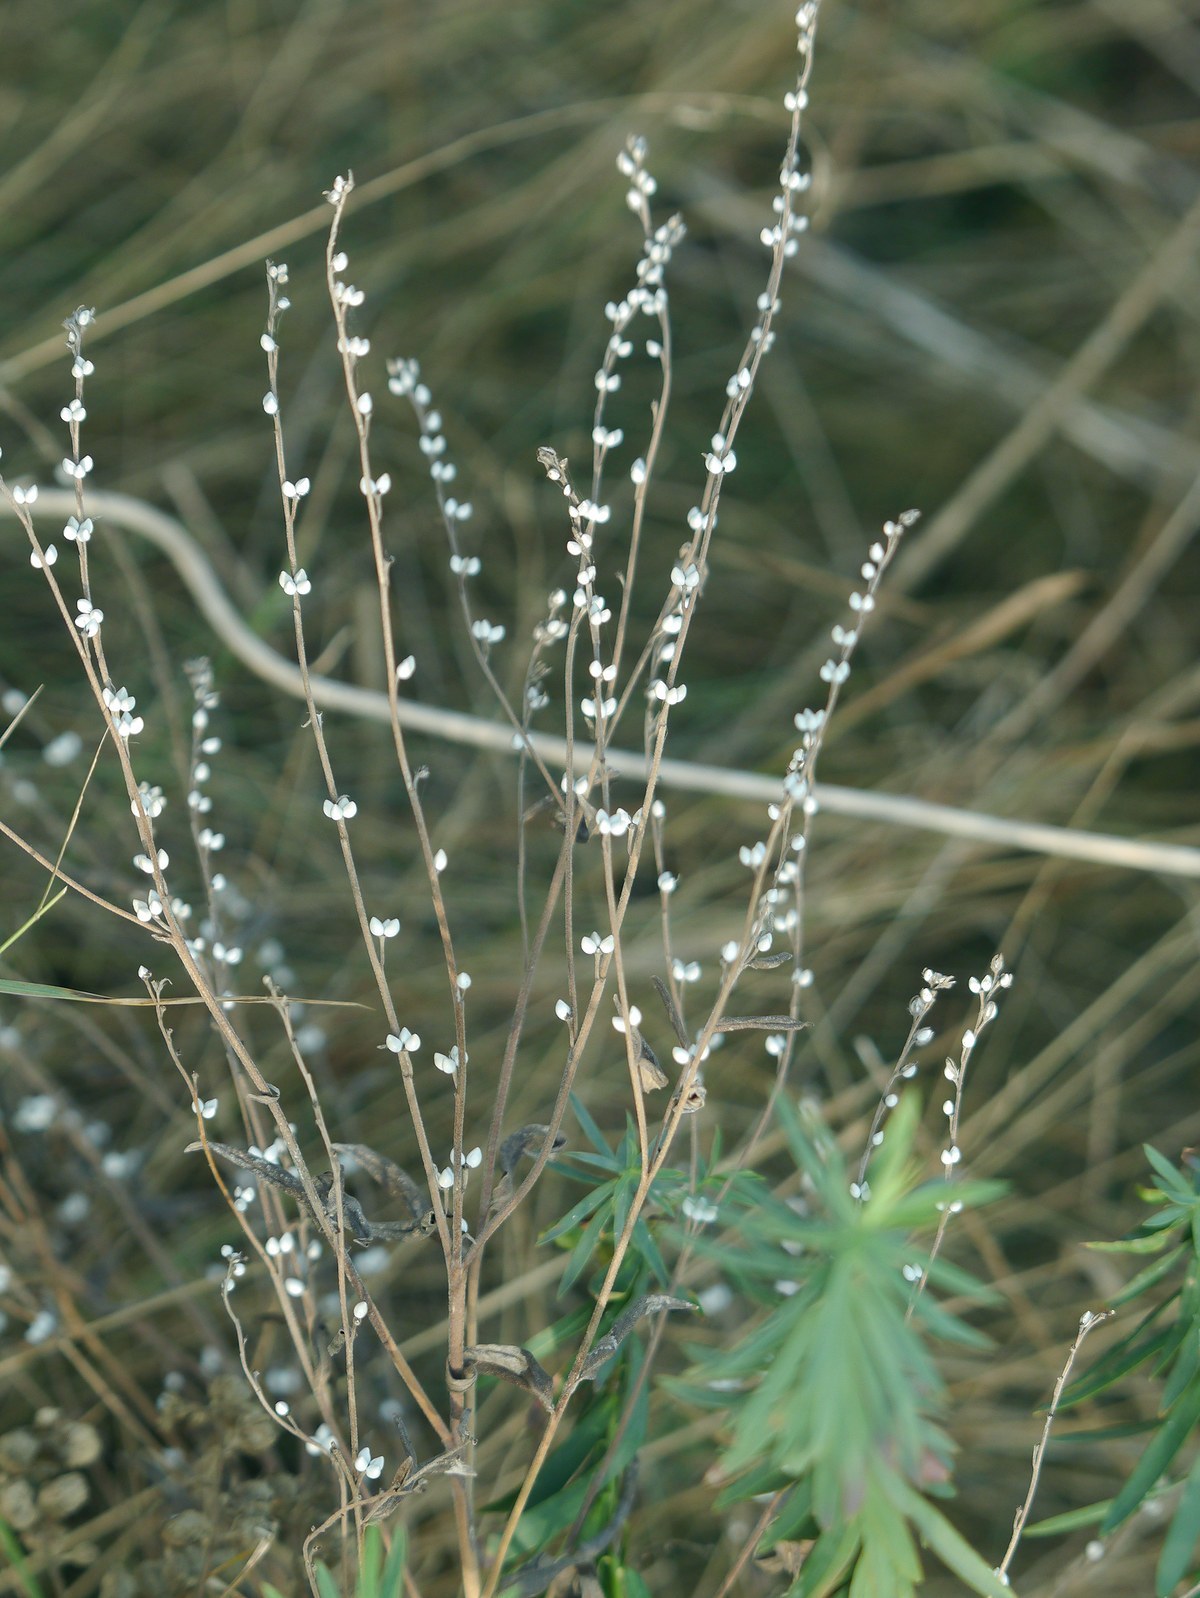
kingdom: Plantae
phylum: Tracheophyta
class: Magnoliopsida
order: Boraginales
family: Boraginaceae
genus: Lithospermum
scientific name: Lithospermum officinale
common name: Common gromwell
